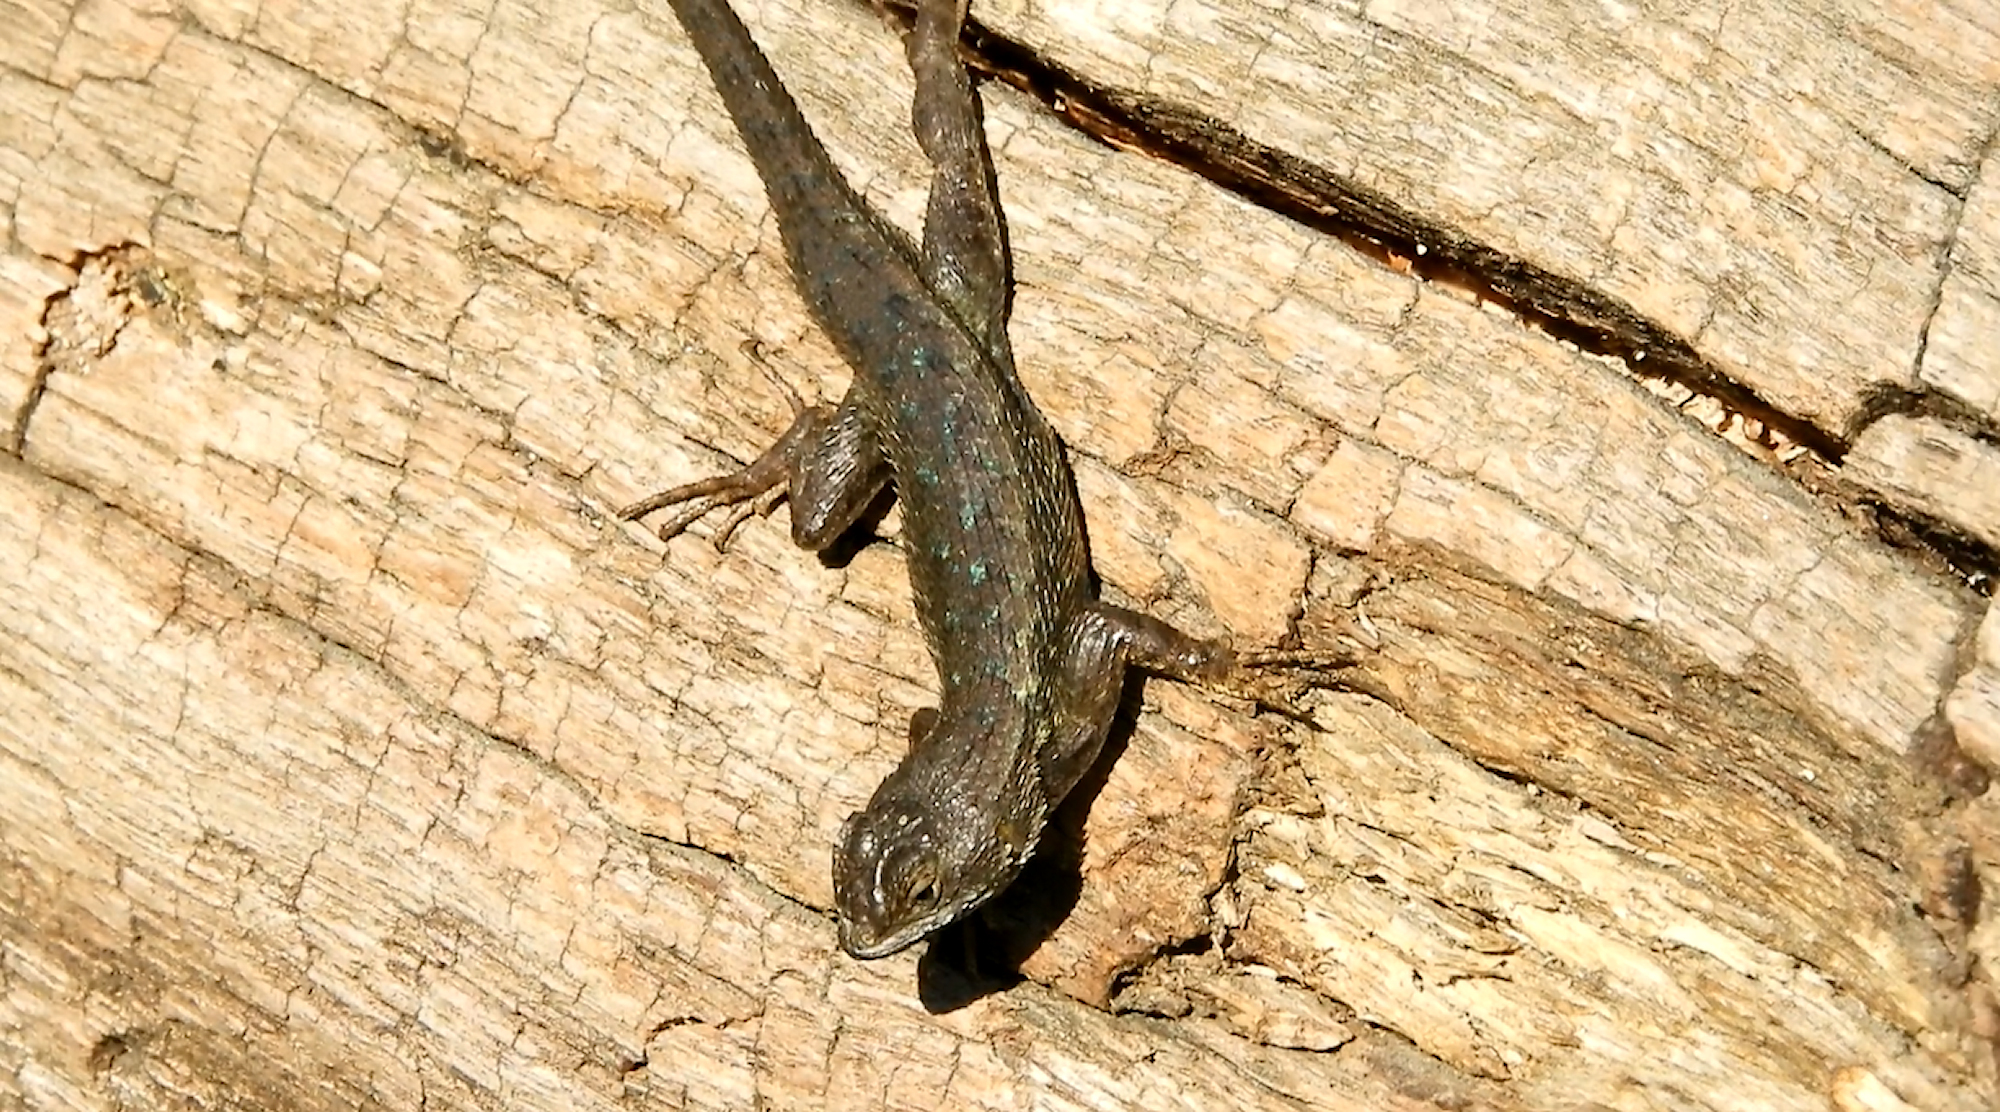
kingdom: Animalia
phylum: Chordata
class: Squamata
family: Phrynosomatidae
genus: Sceloporus
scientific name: Sceloporus occidentalis
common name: Western fence lizard
